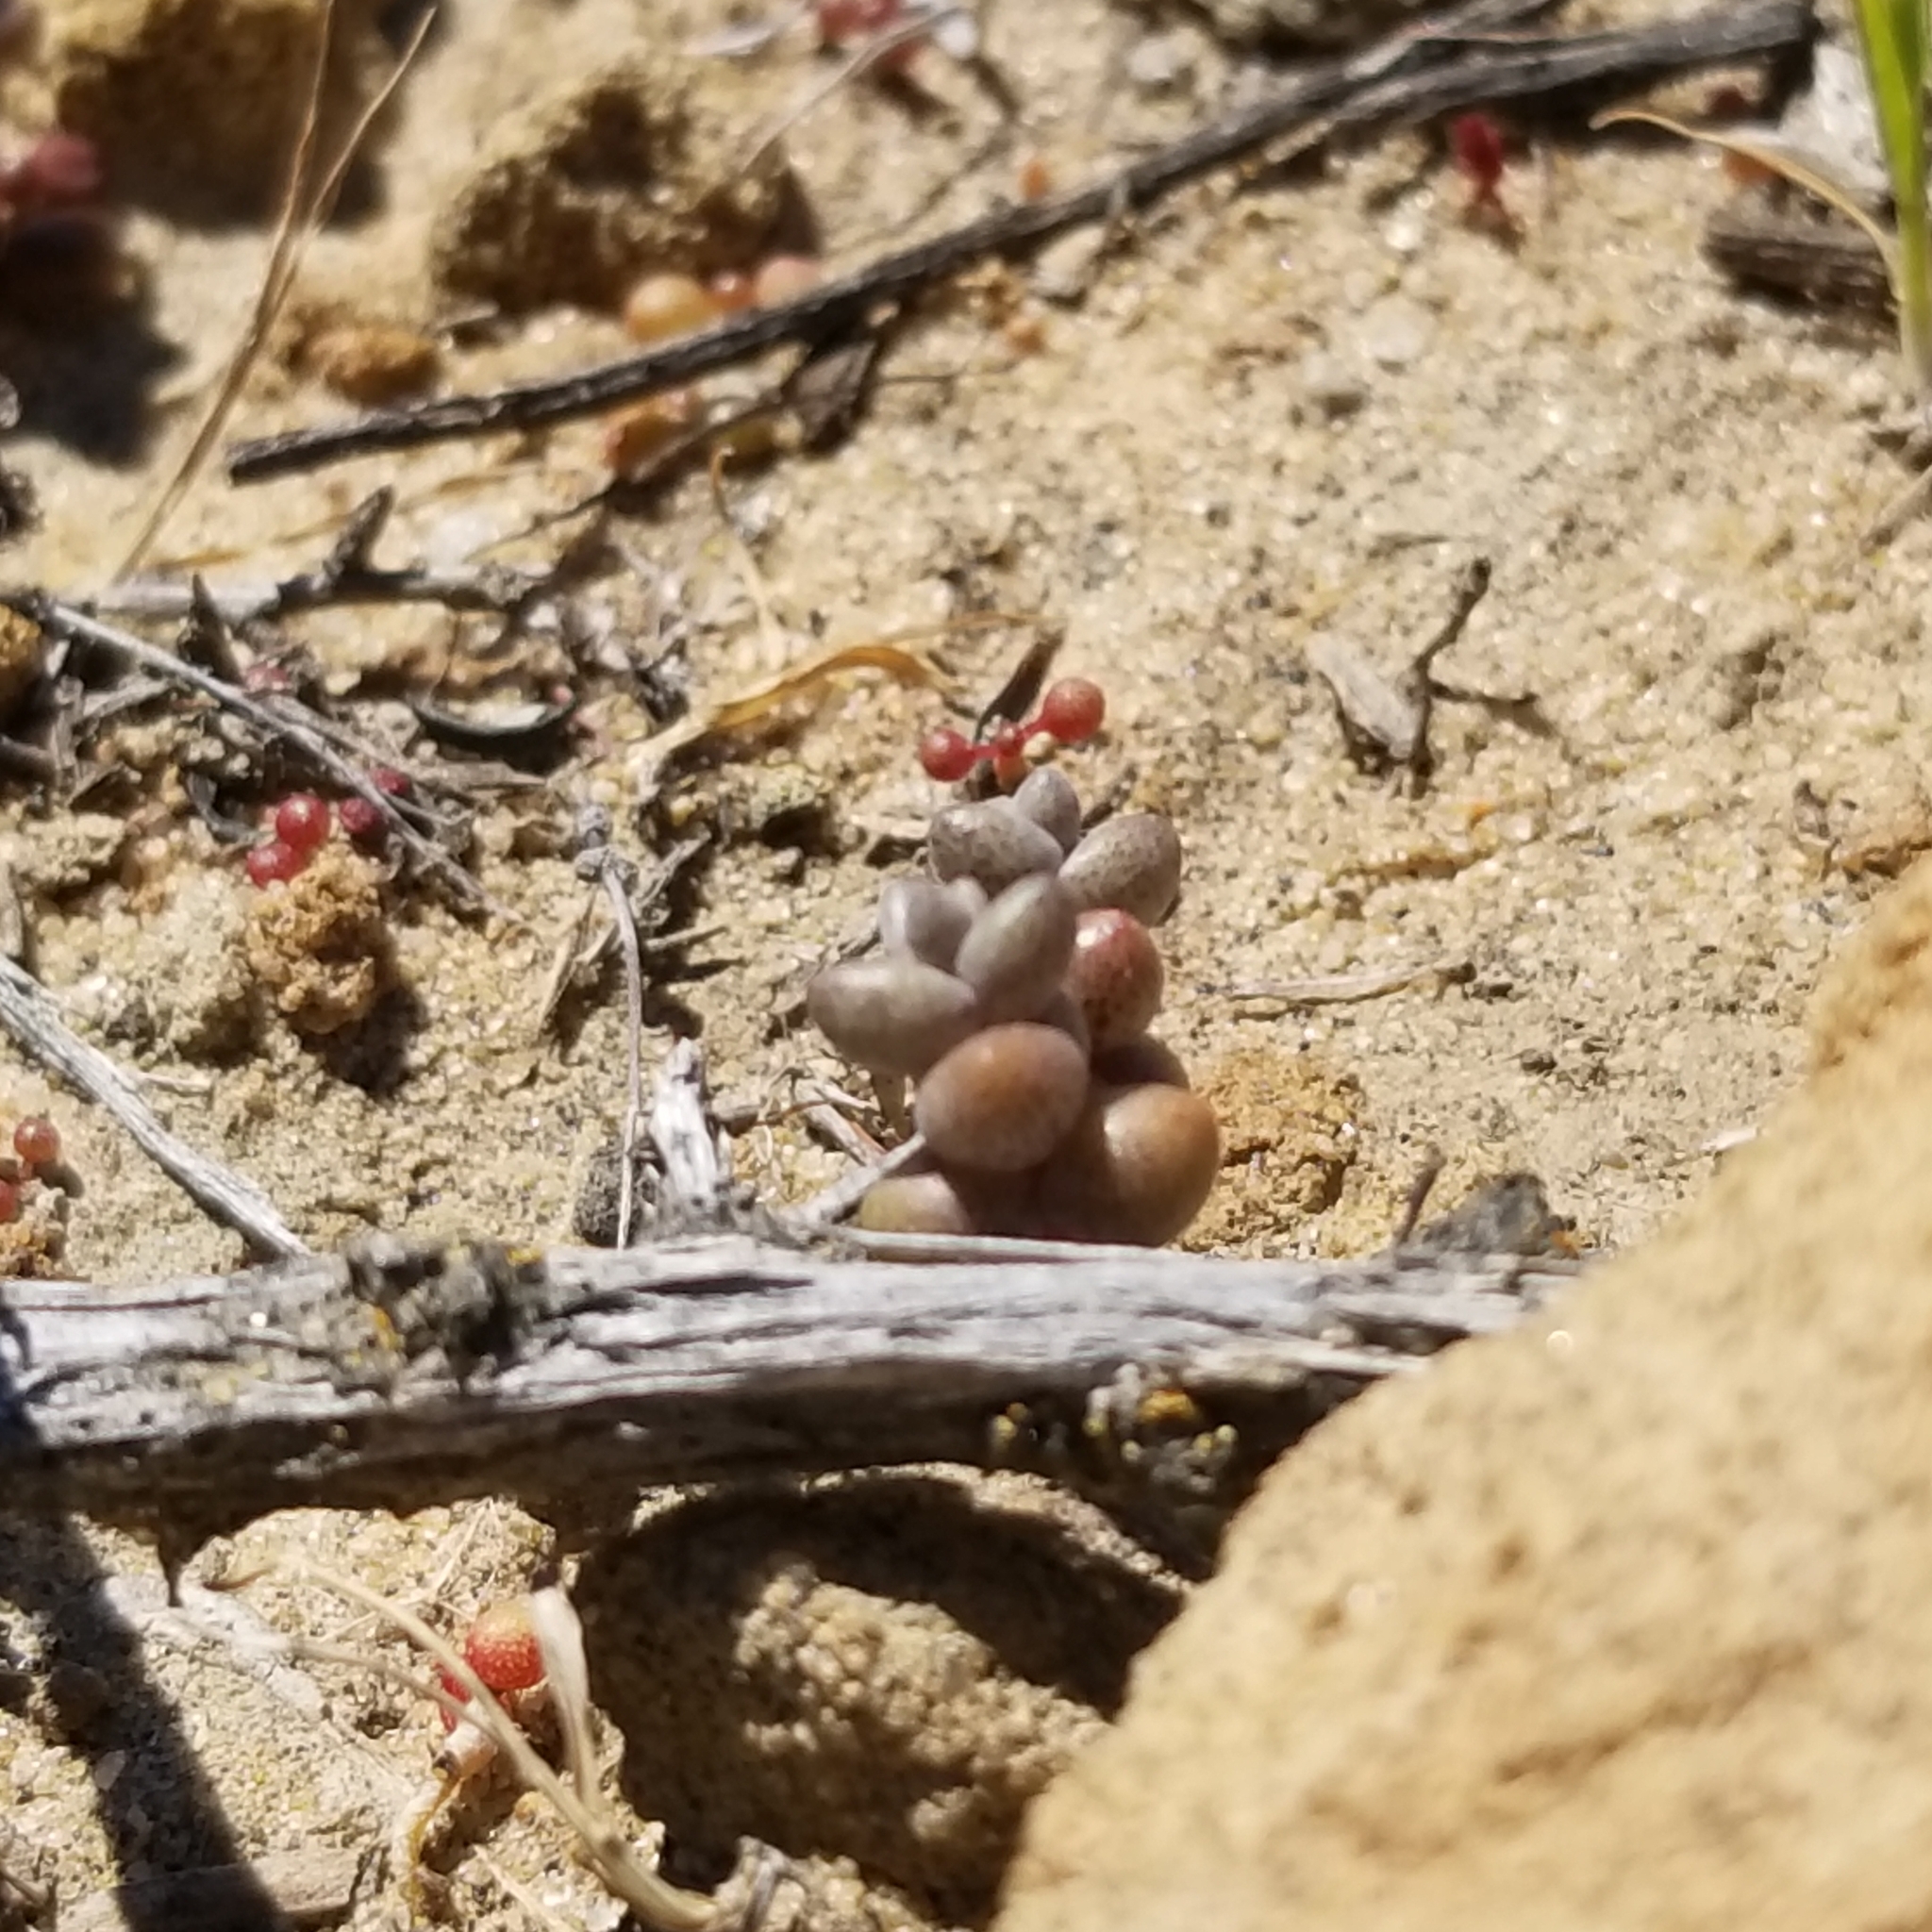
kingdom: Plantae
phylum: Tracheophyta
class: Magnoliopsida
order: Saxifragales
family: Crassulaceae
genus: Dudleya
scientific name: Dudleya blochmaniae
